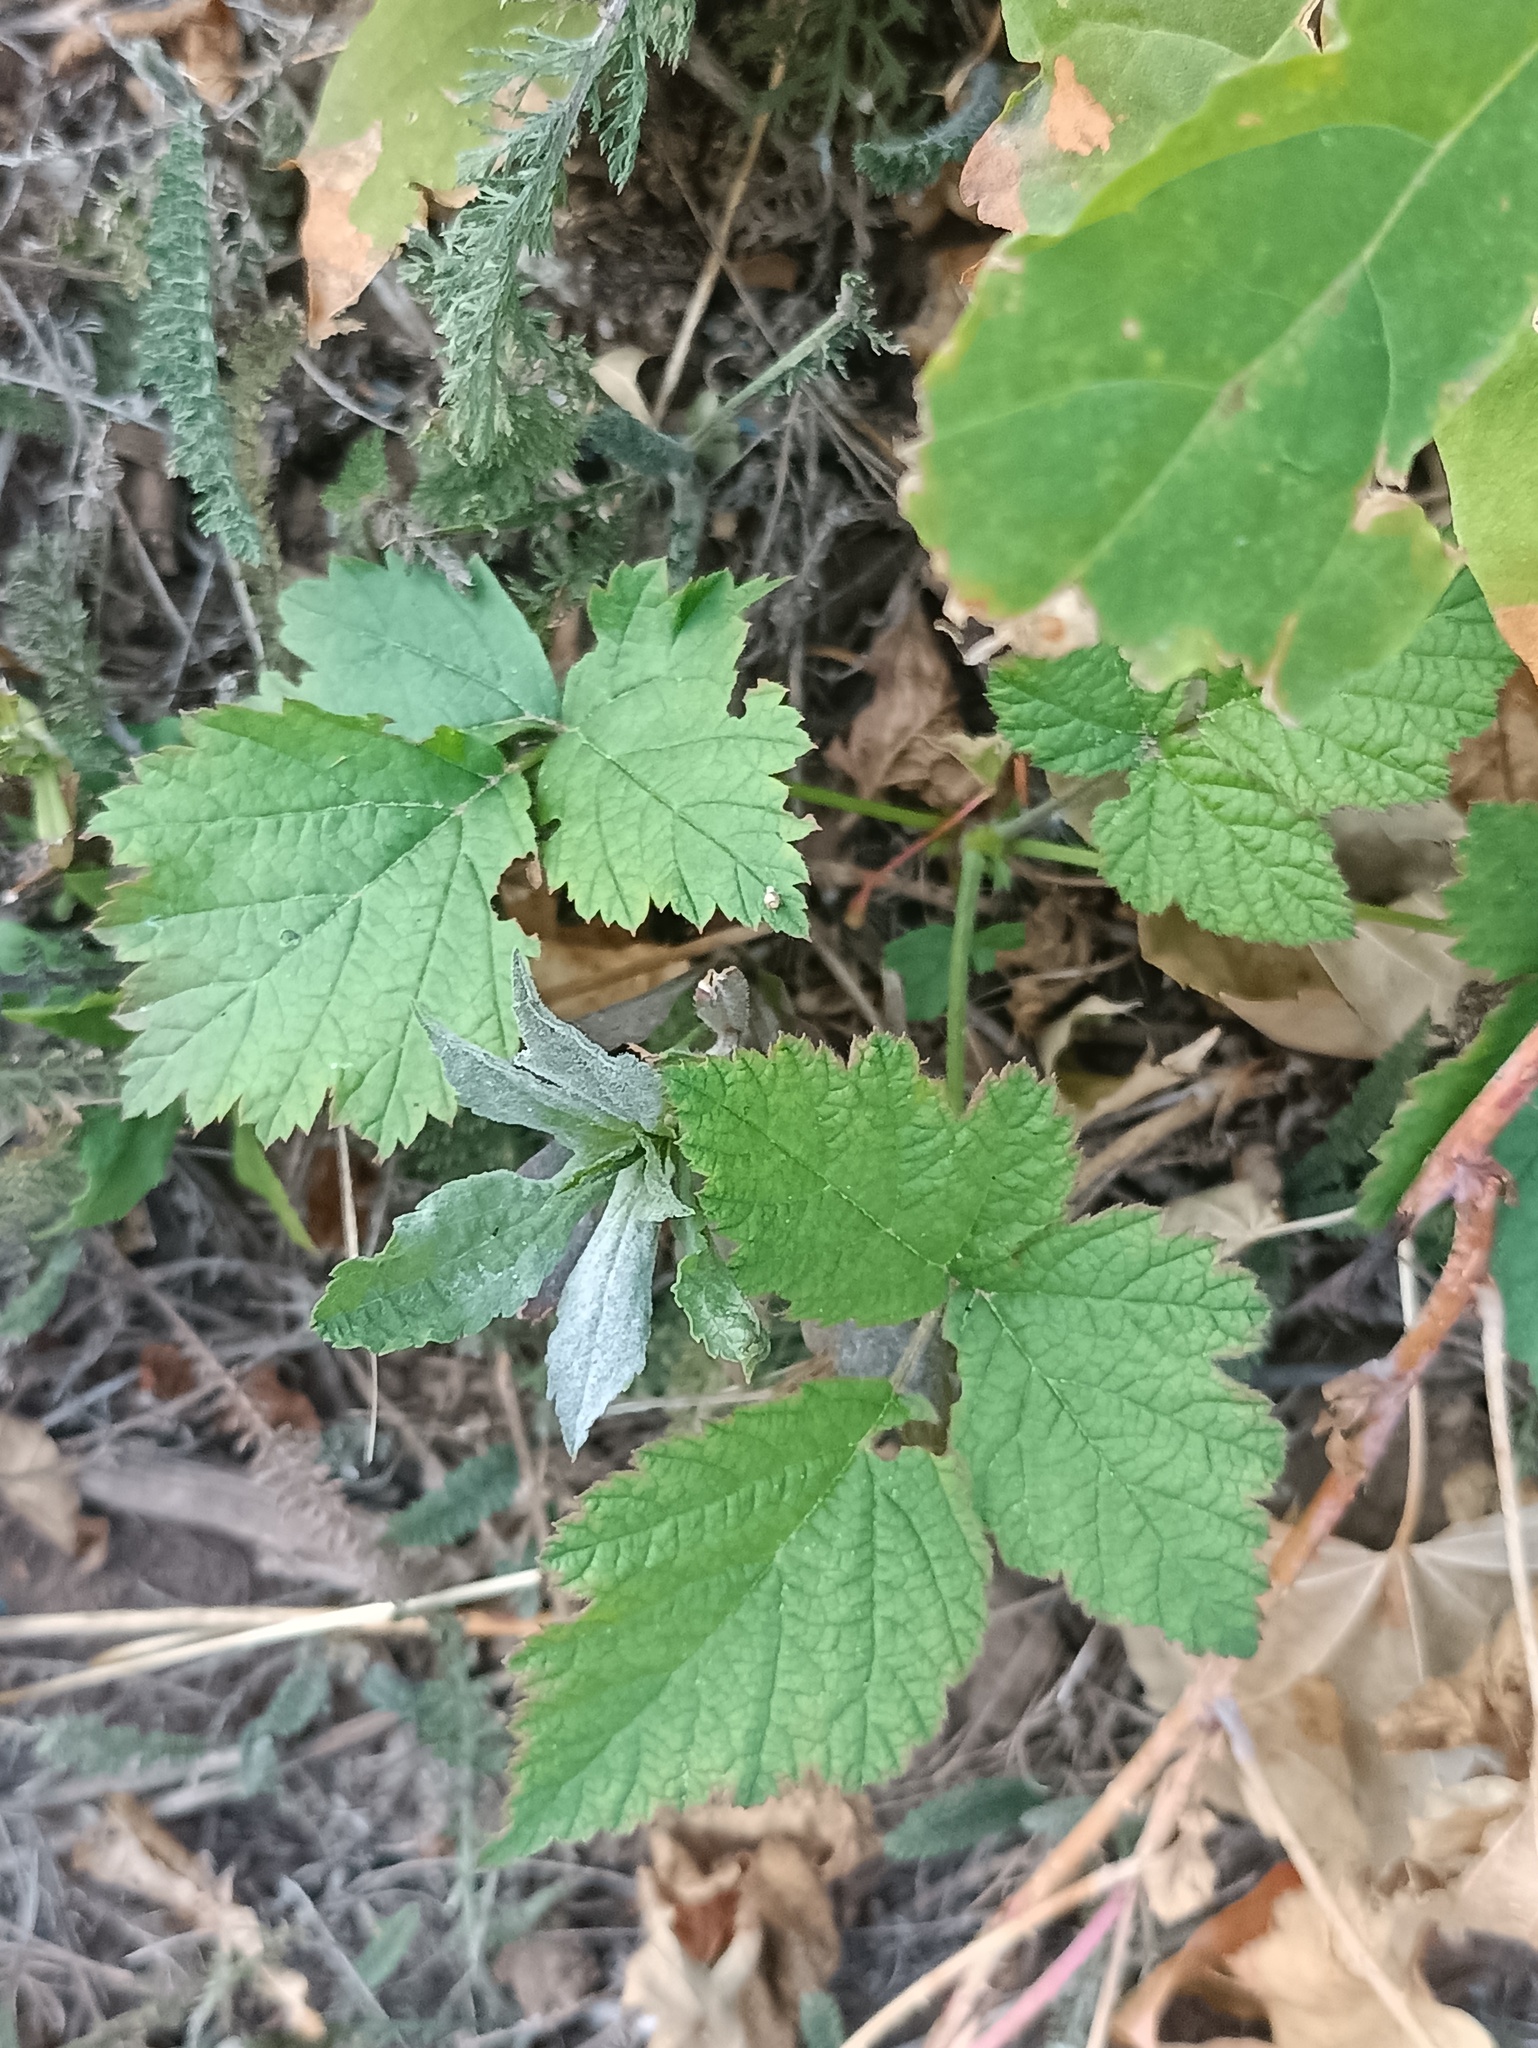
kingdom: Plantae
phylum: Tracheophyta
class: Magnoliopsida
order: Rosales
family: Rosaceae
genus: Rubus
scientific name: Rubus caesius
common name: Dewberry
